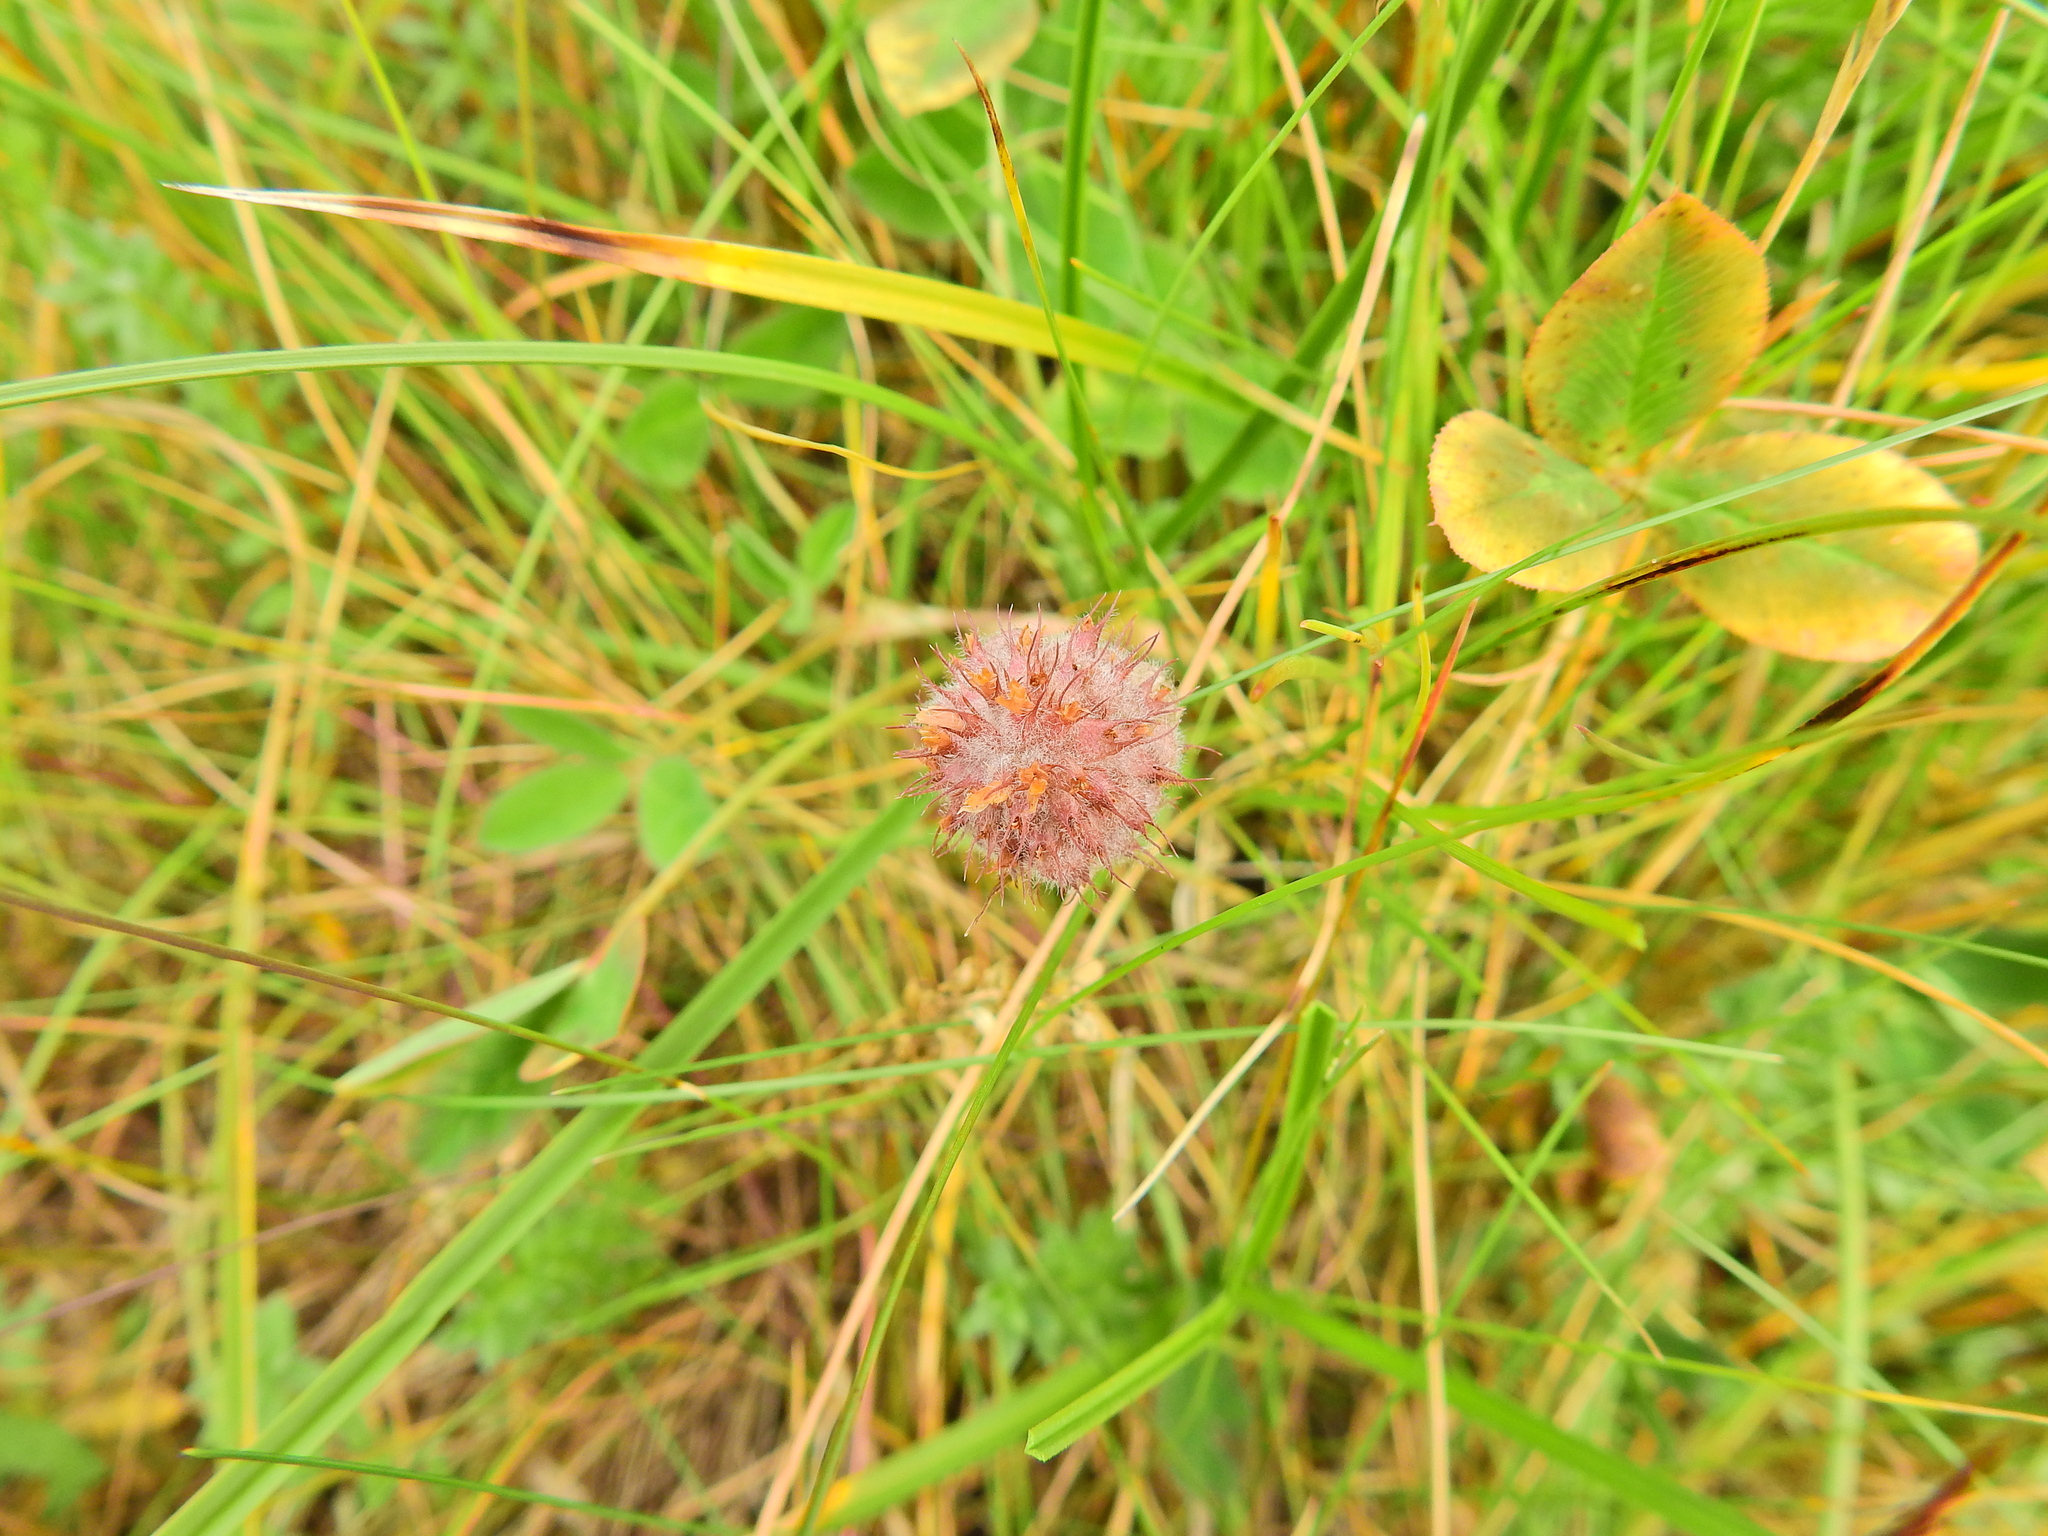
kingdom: Plantae
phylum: Tracheophyta
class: Magnoliopsida
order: Fabales
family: Fabaceae
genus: Trifolium
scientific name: Trifolium fragiferum
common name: Strawberry clover
